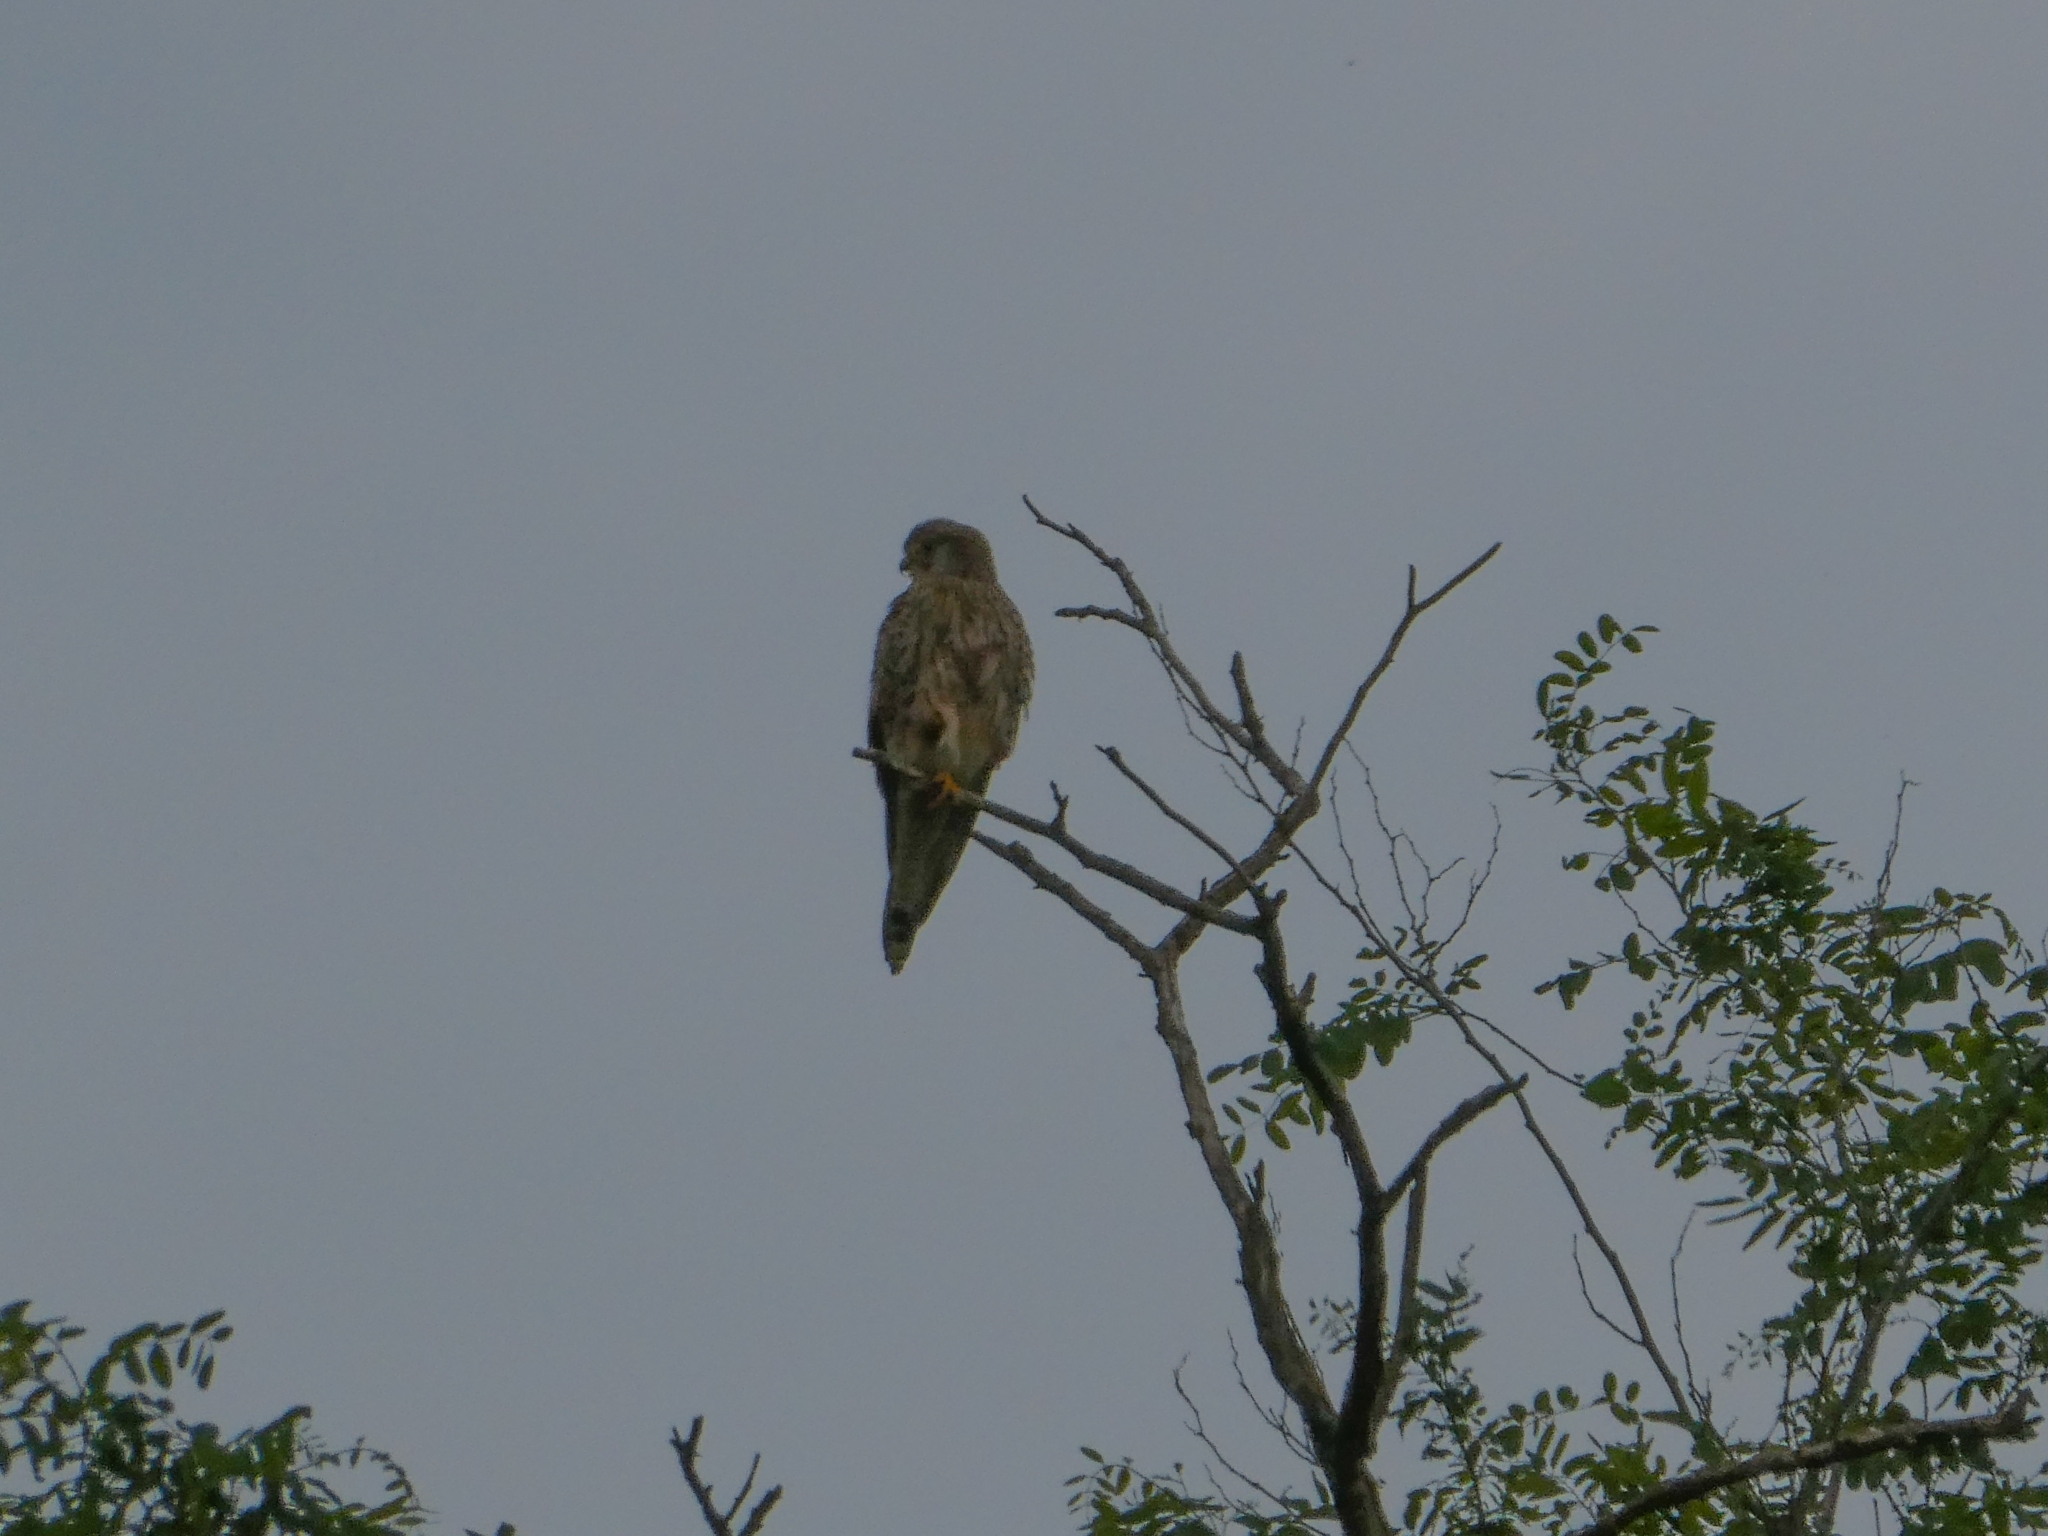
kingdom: Animalia
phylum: Chordata
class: Aves
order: Falconiformes
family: Falconidae
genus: Falco
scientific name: Falco tinnunculus
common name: Common kestrel
